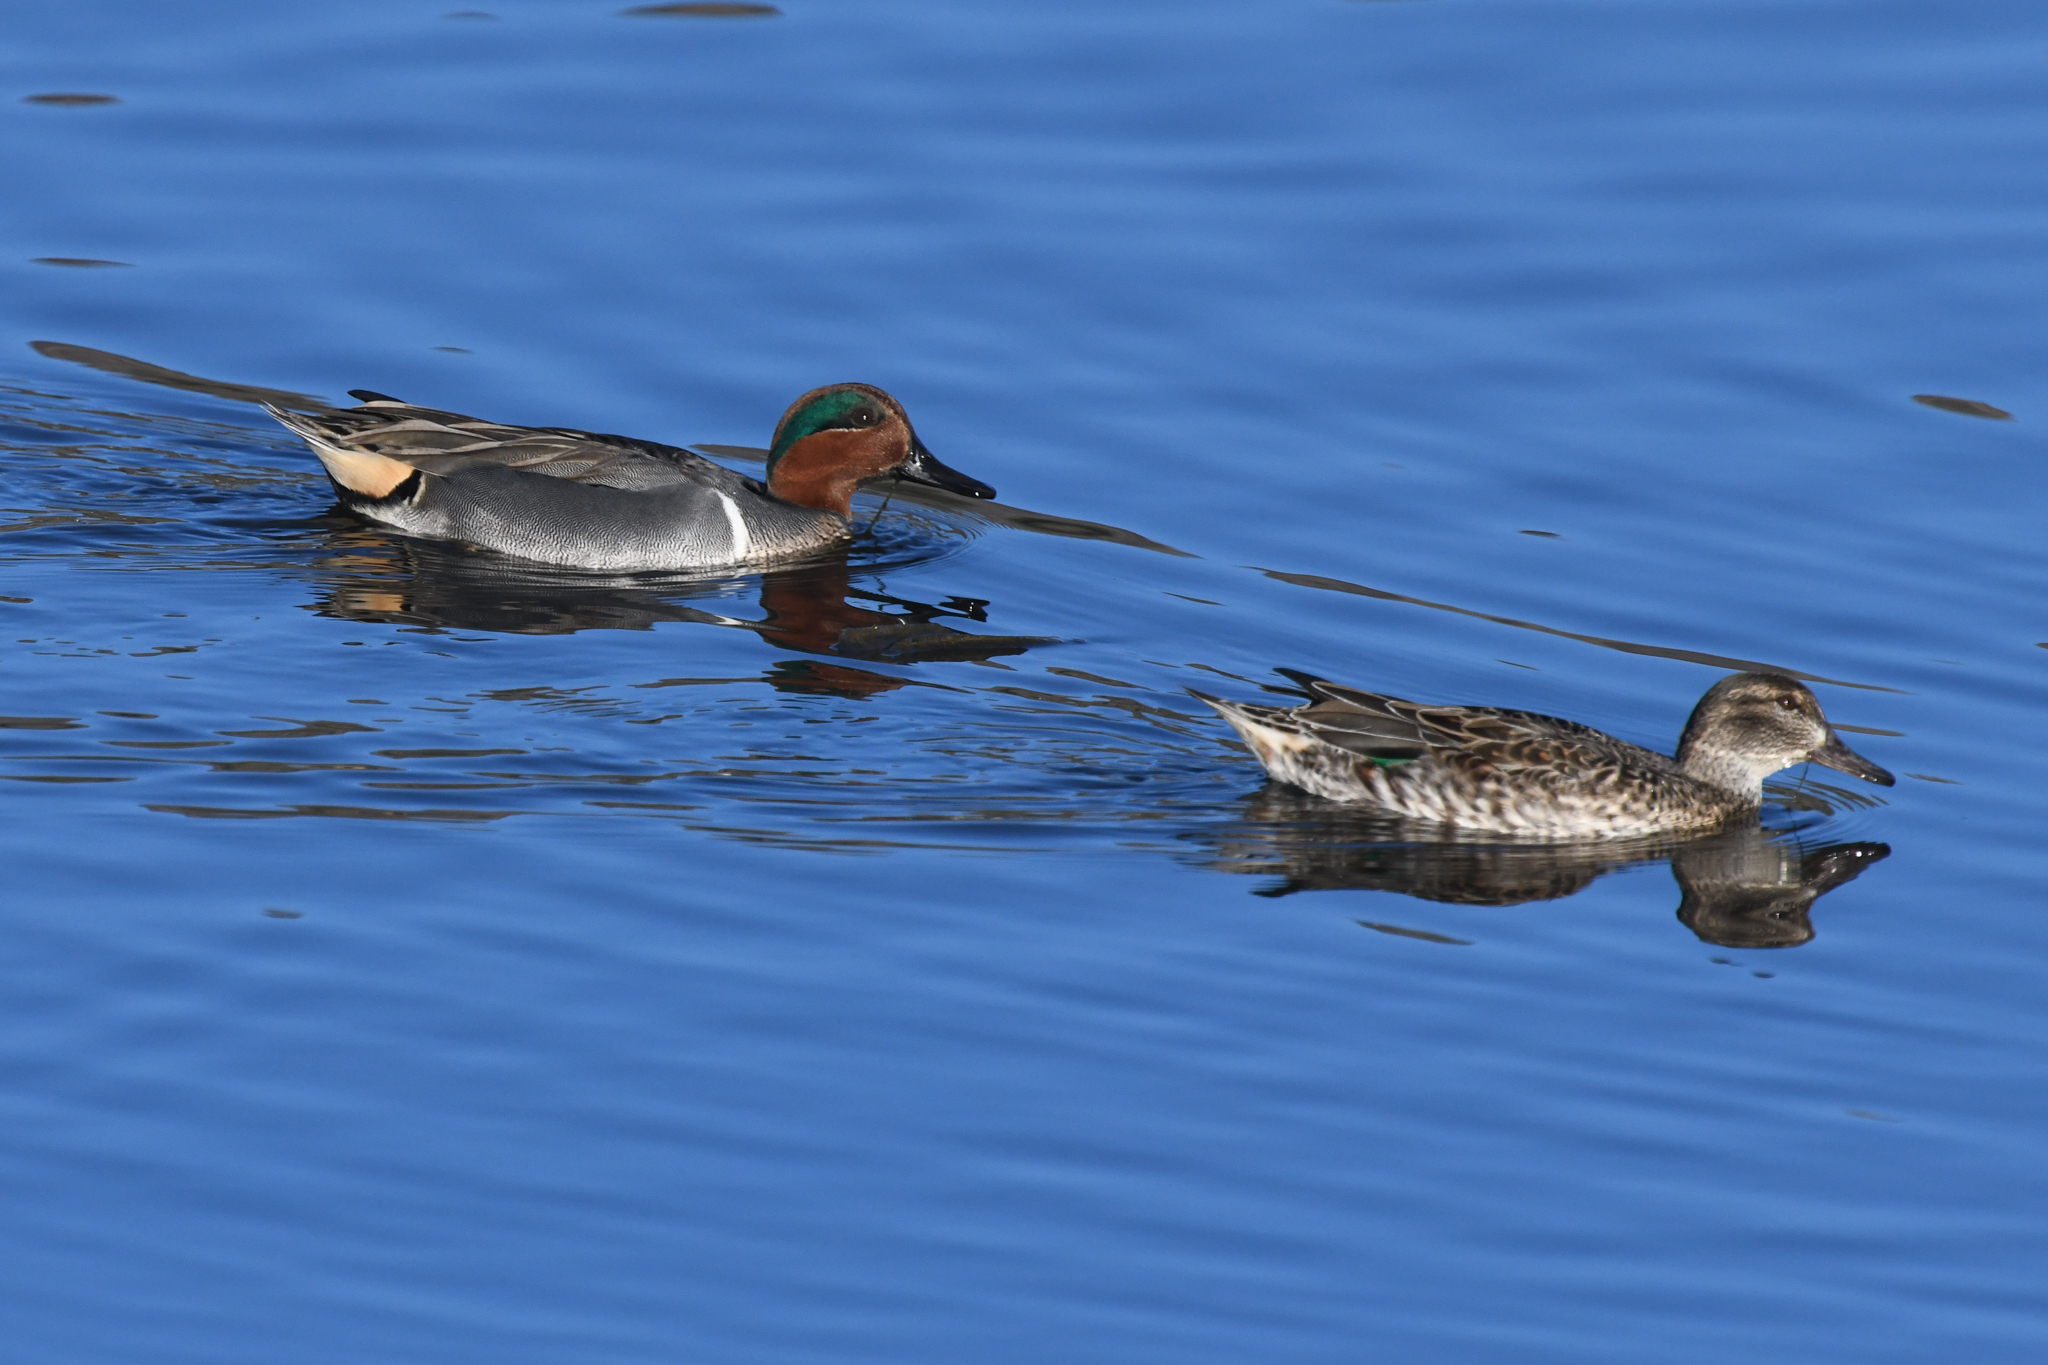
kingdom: Animalia
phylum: Chordata
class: Aves
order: Anseriformes
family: Anatidae
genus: Anas
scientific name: Anas crecca
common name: Eurasian teal
